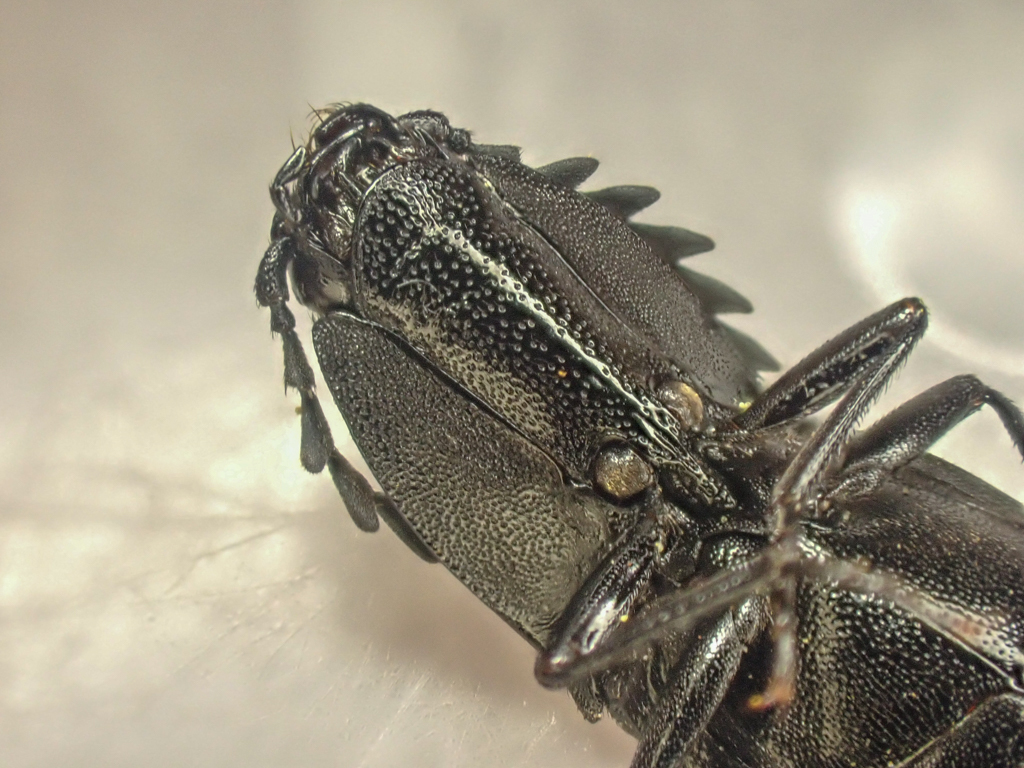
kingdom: Animalia
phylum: Arthropoda
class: Insecta
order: Coleoptera
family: Elateridae
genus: Neopristilophus
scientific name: Neopristilophus
